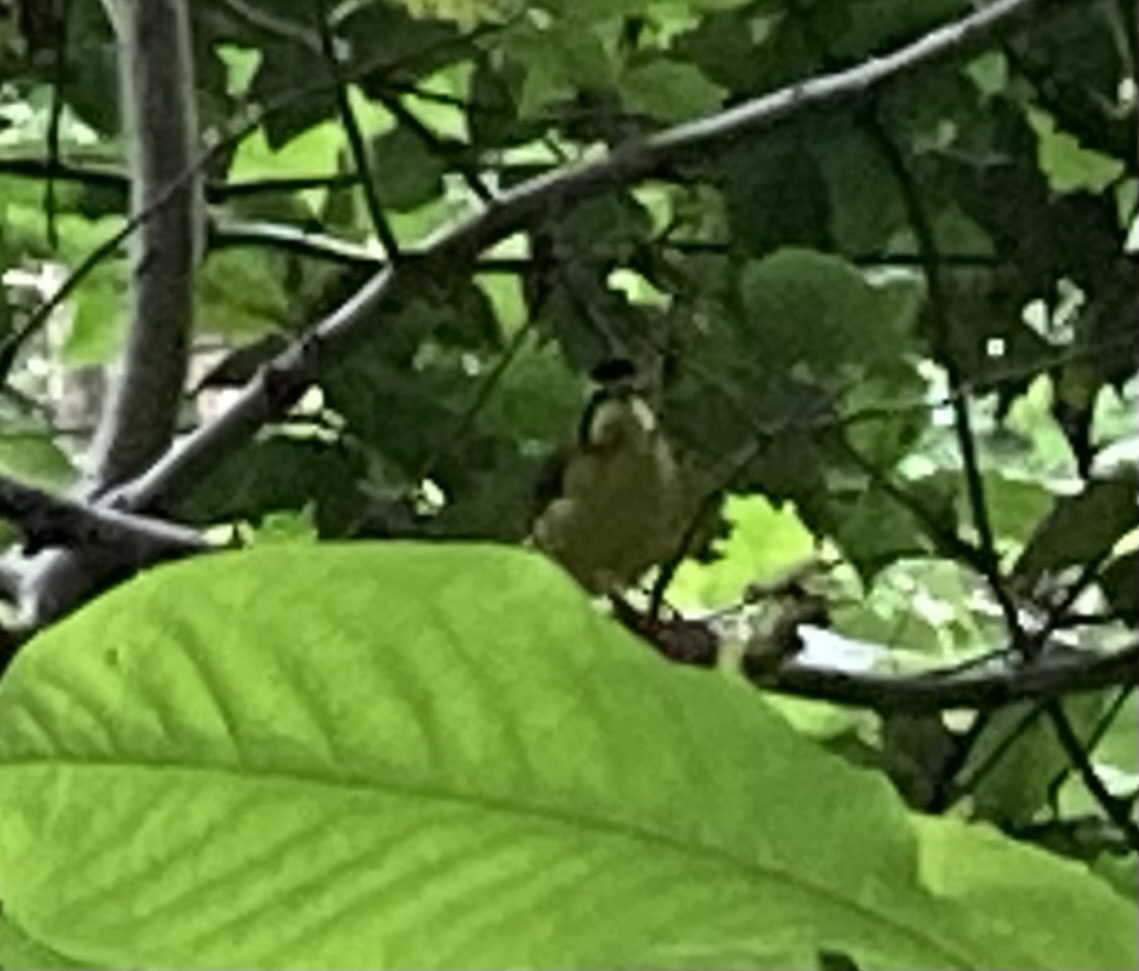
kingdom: Animalia
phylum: Chordata
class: Aves
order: Passeriformes
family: Parulidae
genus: Geothlypis
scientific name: Geothlypis formosa
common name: Kentucky warbler
